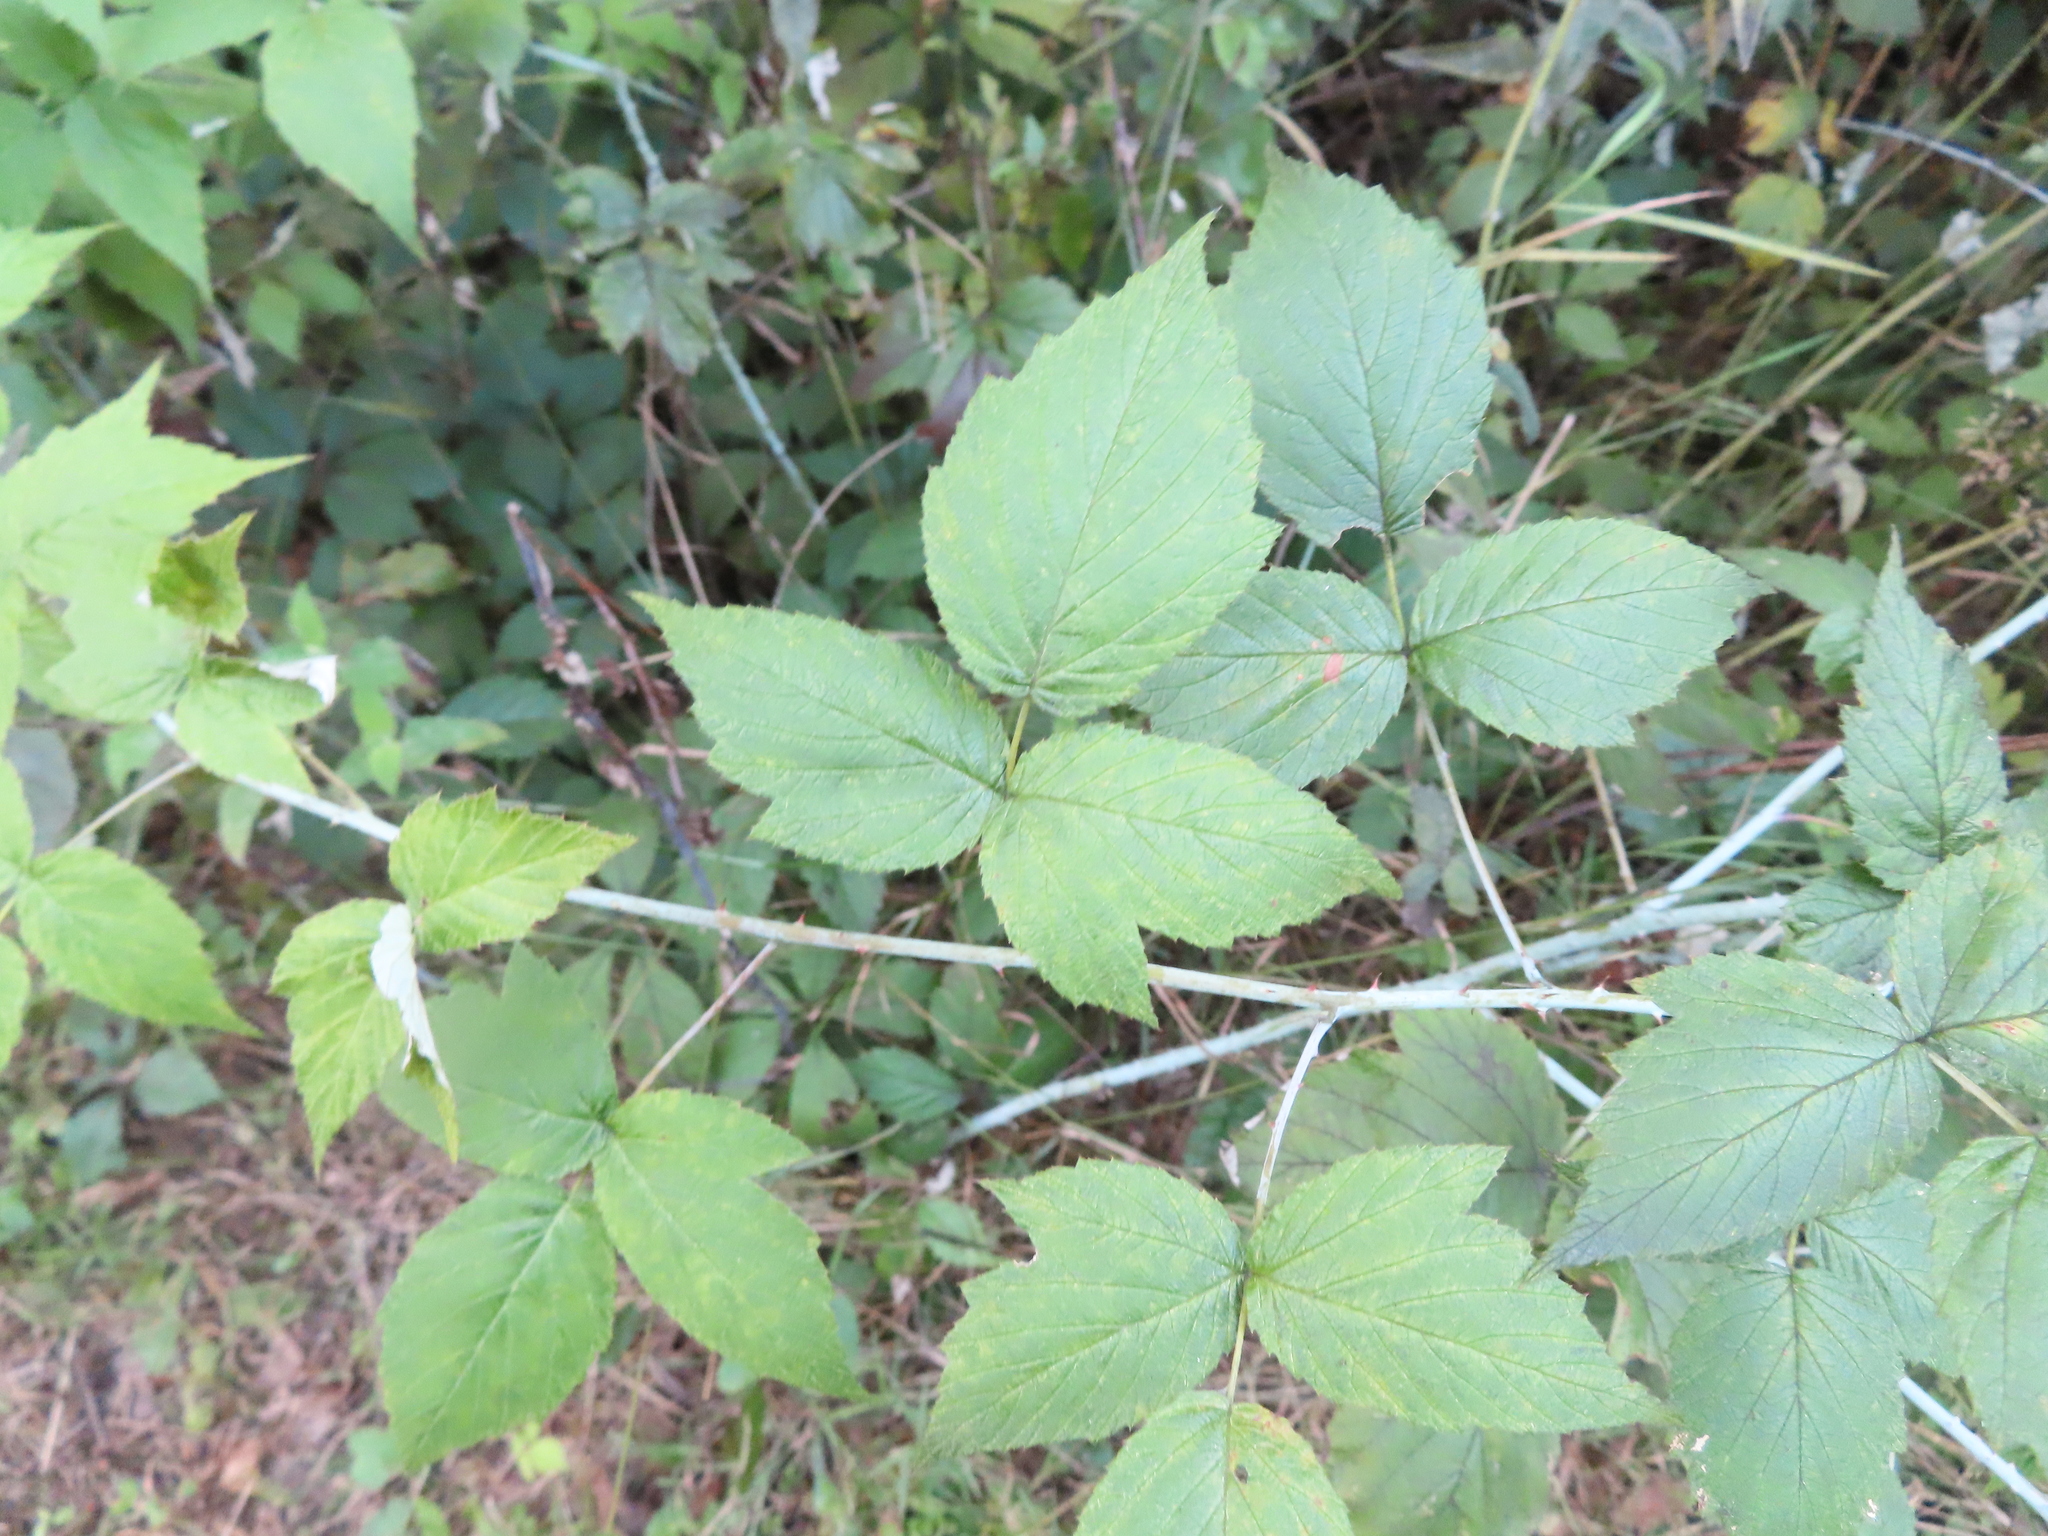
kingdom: Plantae
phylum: Tracheophyta
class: Magnoliopsida
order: Rosales
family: Rosaceae
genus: Rubus
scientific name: Rubus occidentalis
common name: Black raspberry
